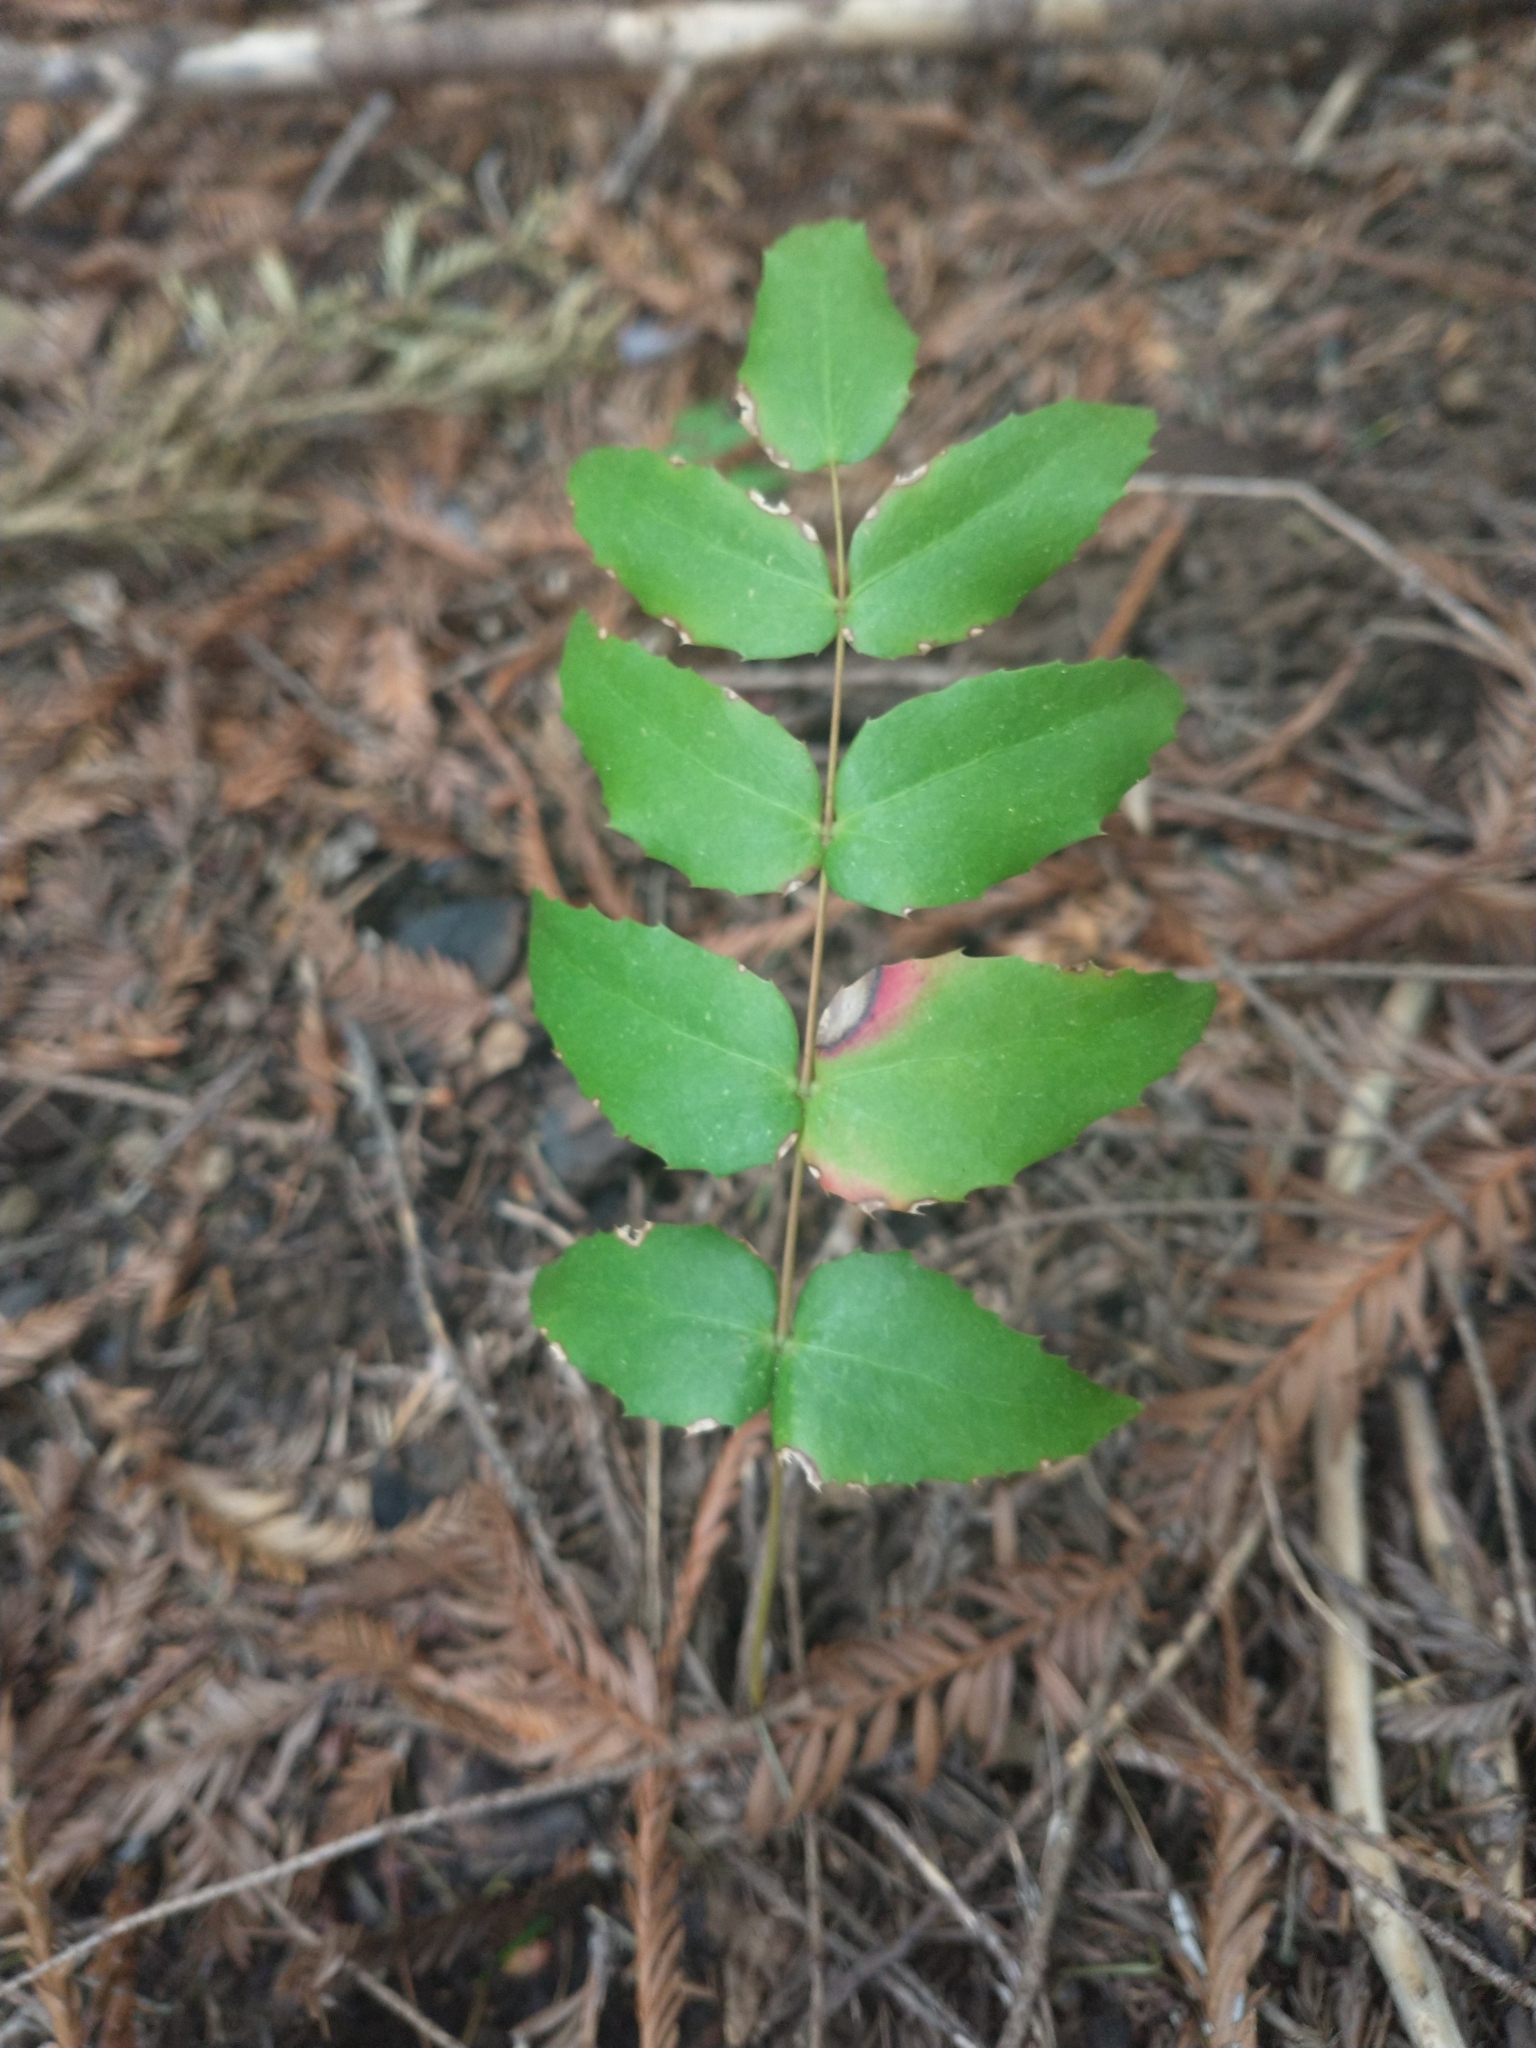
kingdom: Plantae
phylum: Tracheophyta
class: Magnoliopsida
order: Ranunculales
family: Berberidaceae
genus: Mahonia
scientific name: Mahonia nervosa
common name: Cascade oregon-grape
